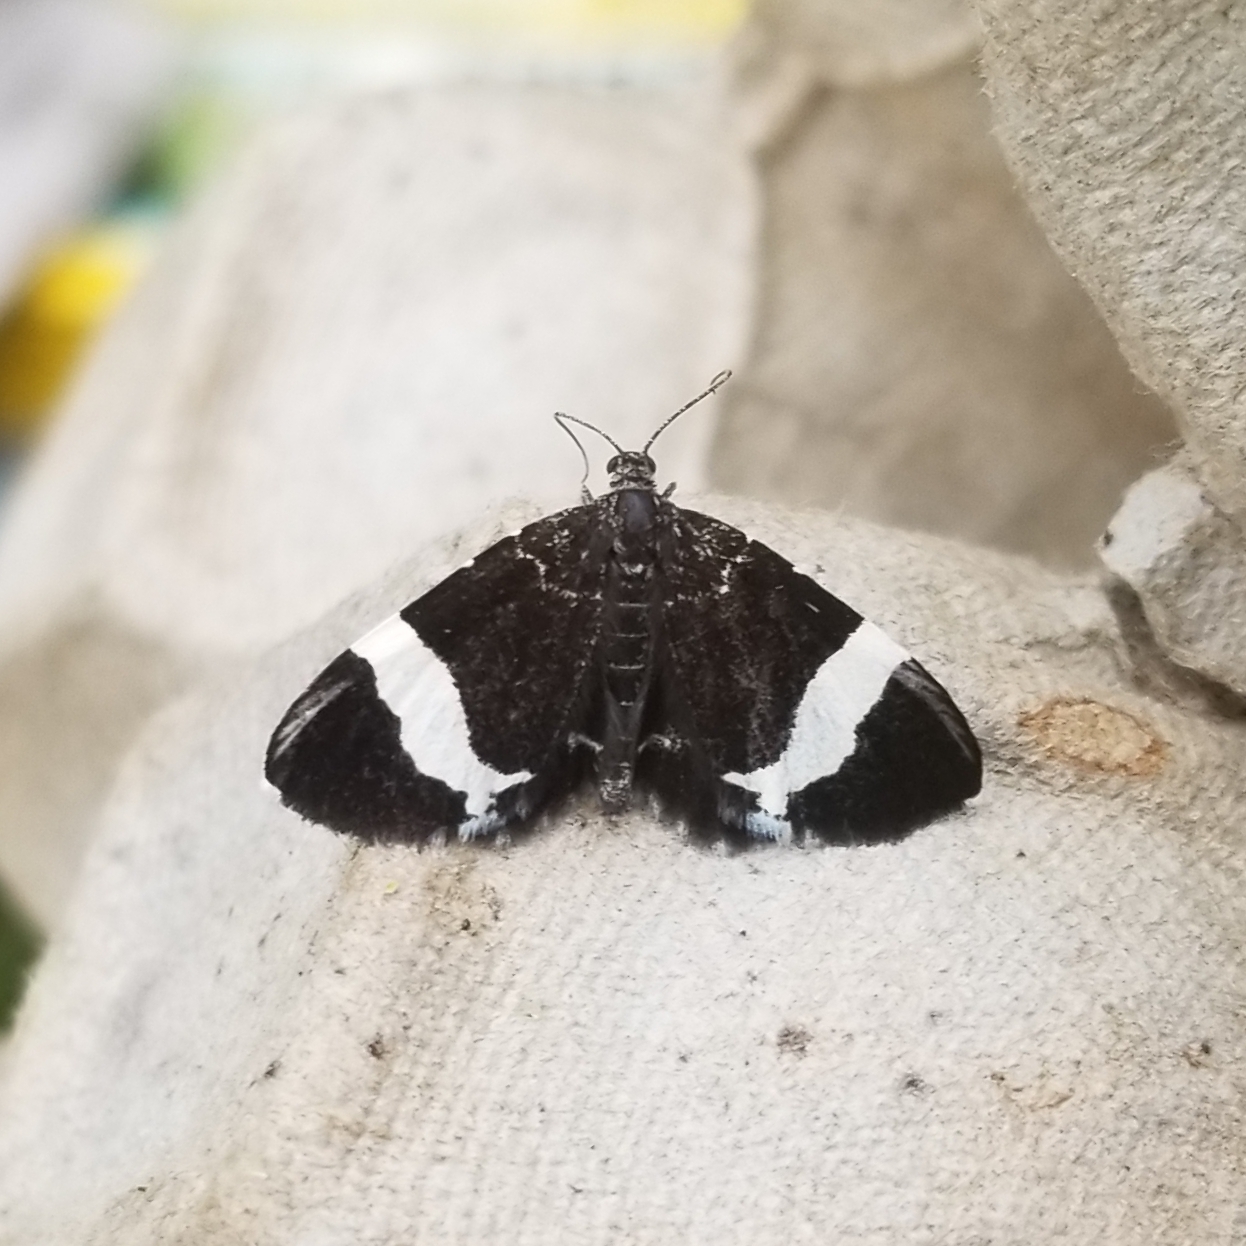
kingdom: Animalia
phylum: Arthropoda
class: Insecta
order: Lepidoptera
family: Geometridae
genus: Trichodezia
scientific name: Trichodezia albovittata
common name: White striped black
